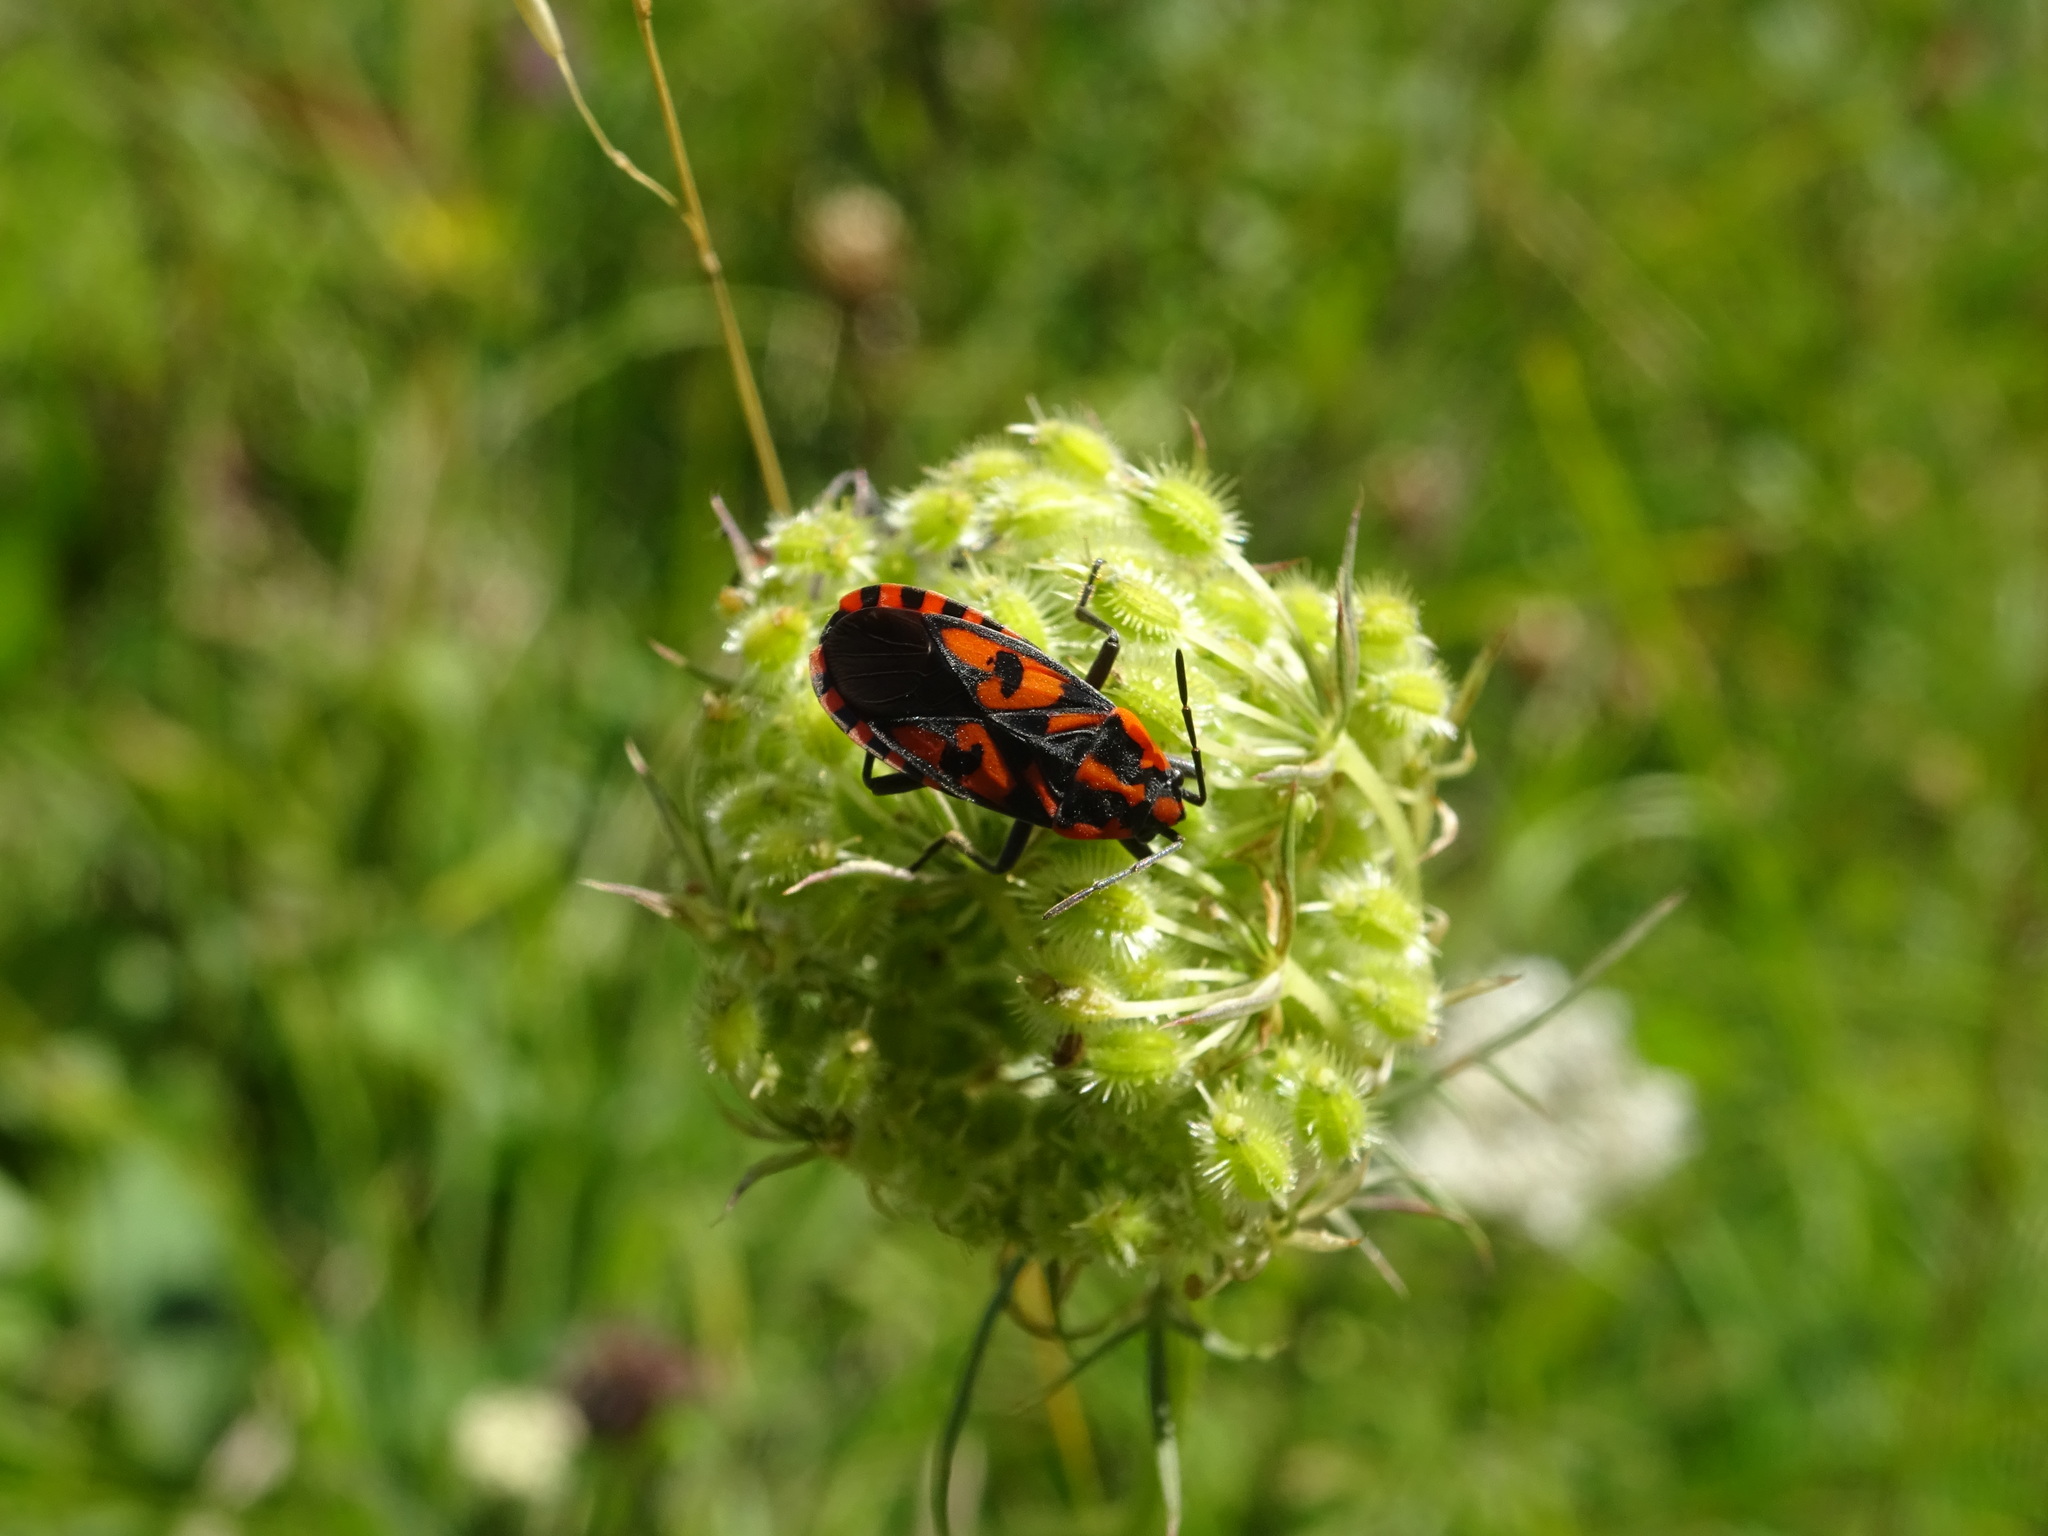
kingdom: Animalia
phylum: Arthropoda
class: Insecta
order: Hemiptera
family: Lygaeidae
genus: Spilostethus
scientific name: Spilostethus saxatilis
